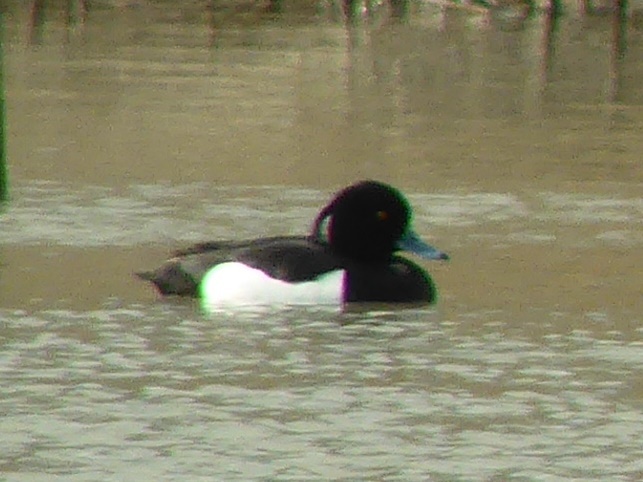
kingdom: Animalia
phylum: Chordata
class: Aves
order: Anseriformes
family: Anatidae
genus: Aythya
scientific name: Aythya fuligula
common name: Tufted duck
